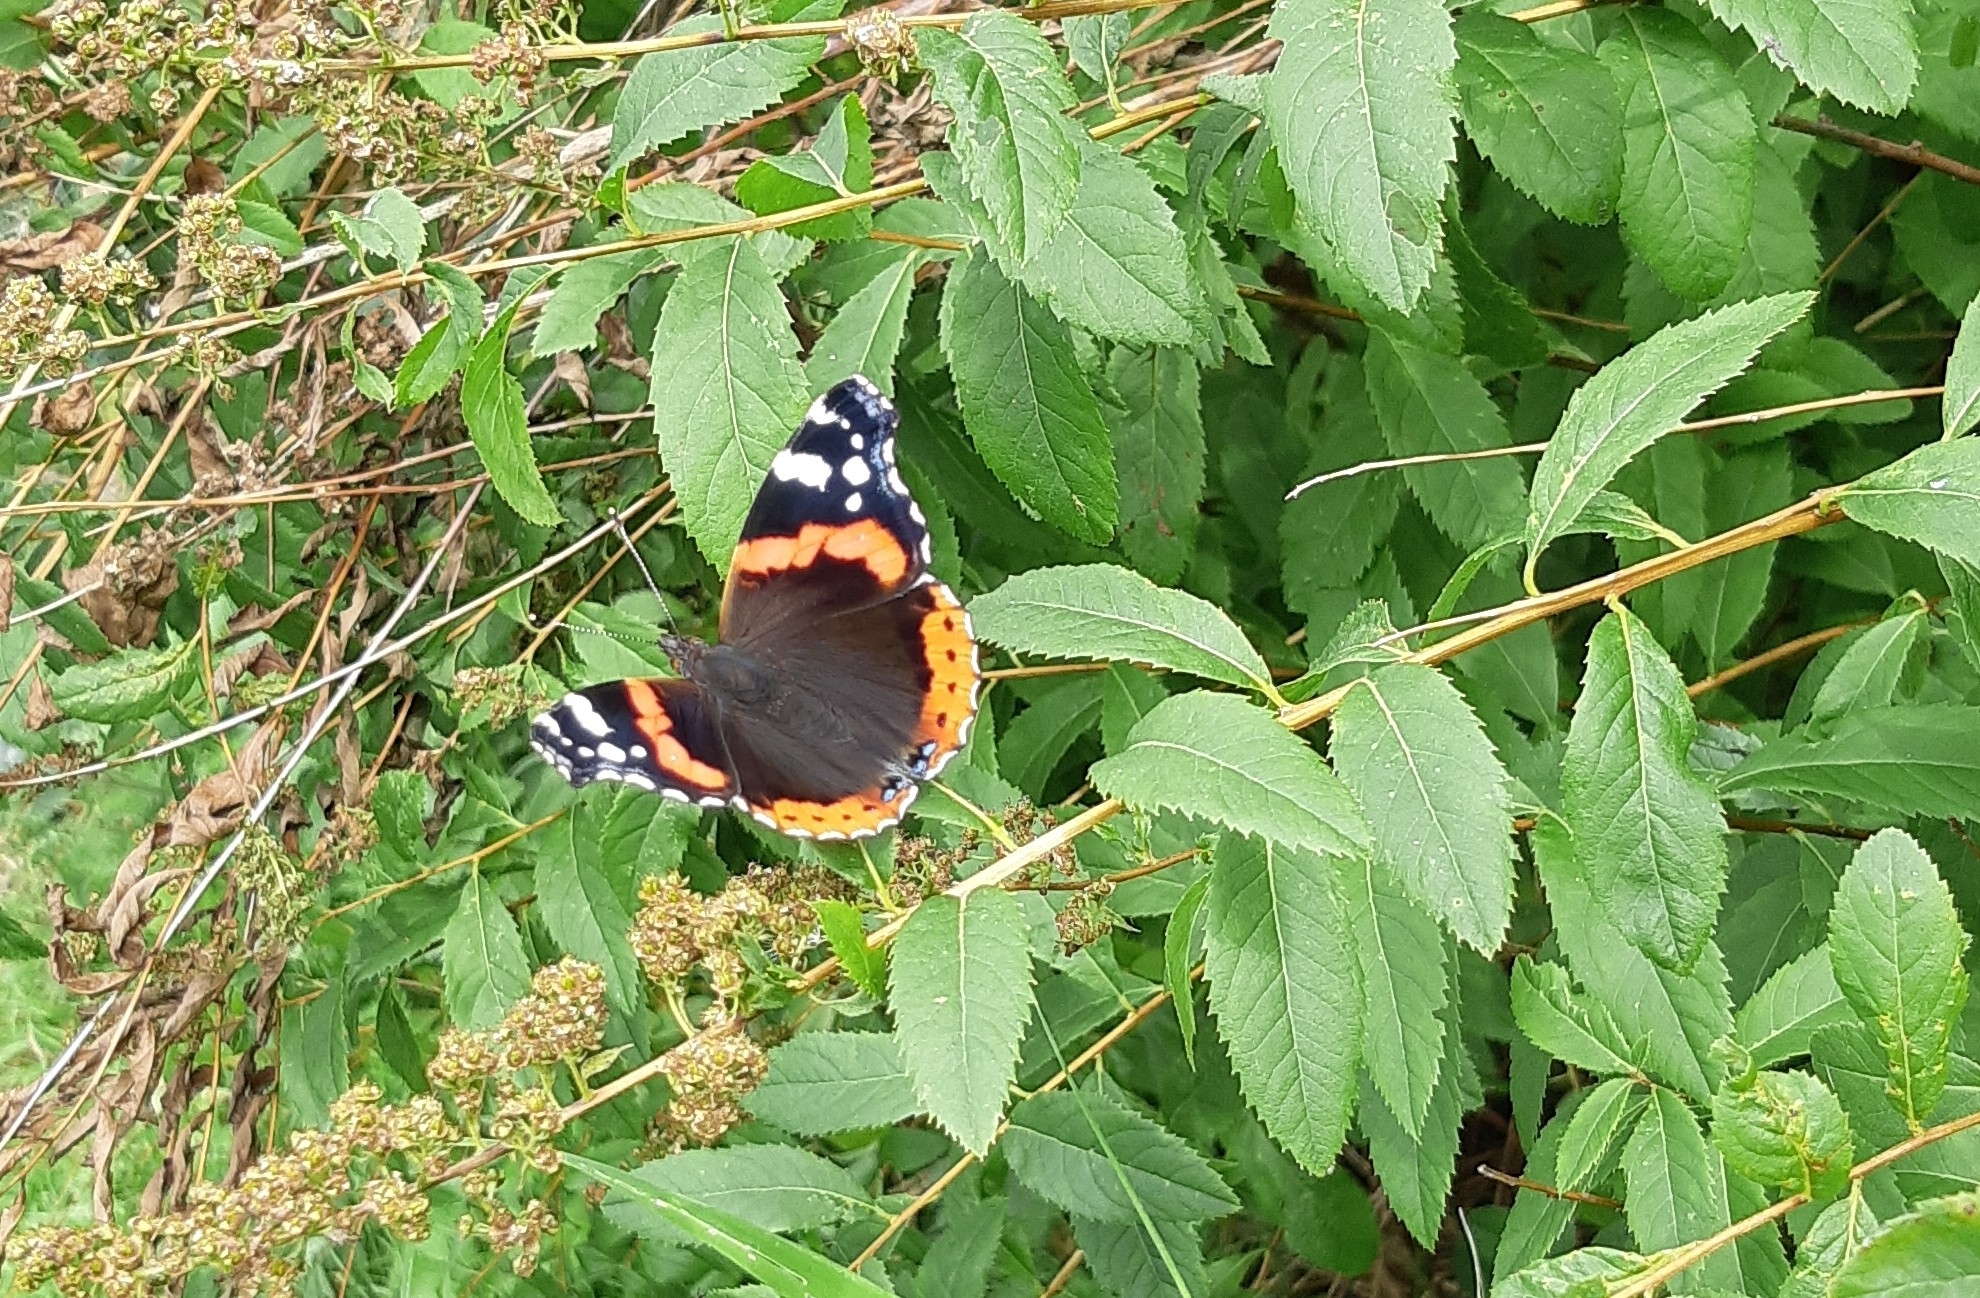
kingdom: Animalia
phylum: Arthropoda
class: Insecta
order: Lepidoptera
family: Nymphalidae
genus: Vanessa
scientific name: Vanessa atalanta
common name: Red admiral
